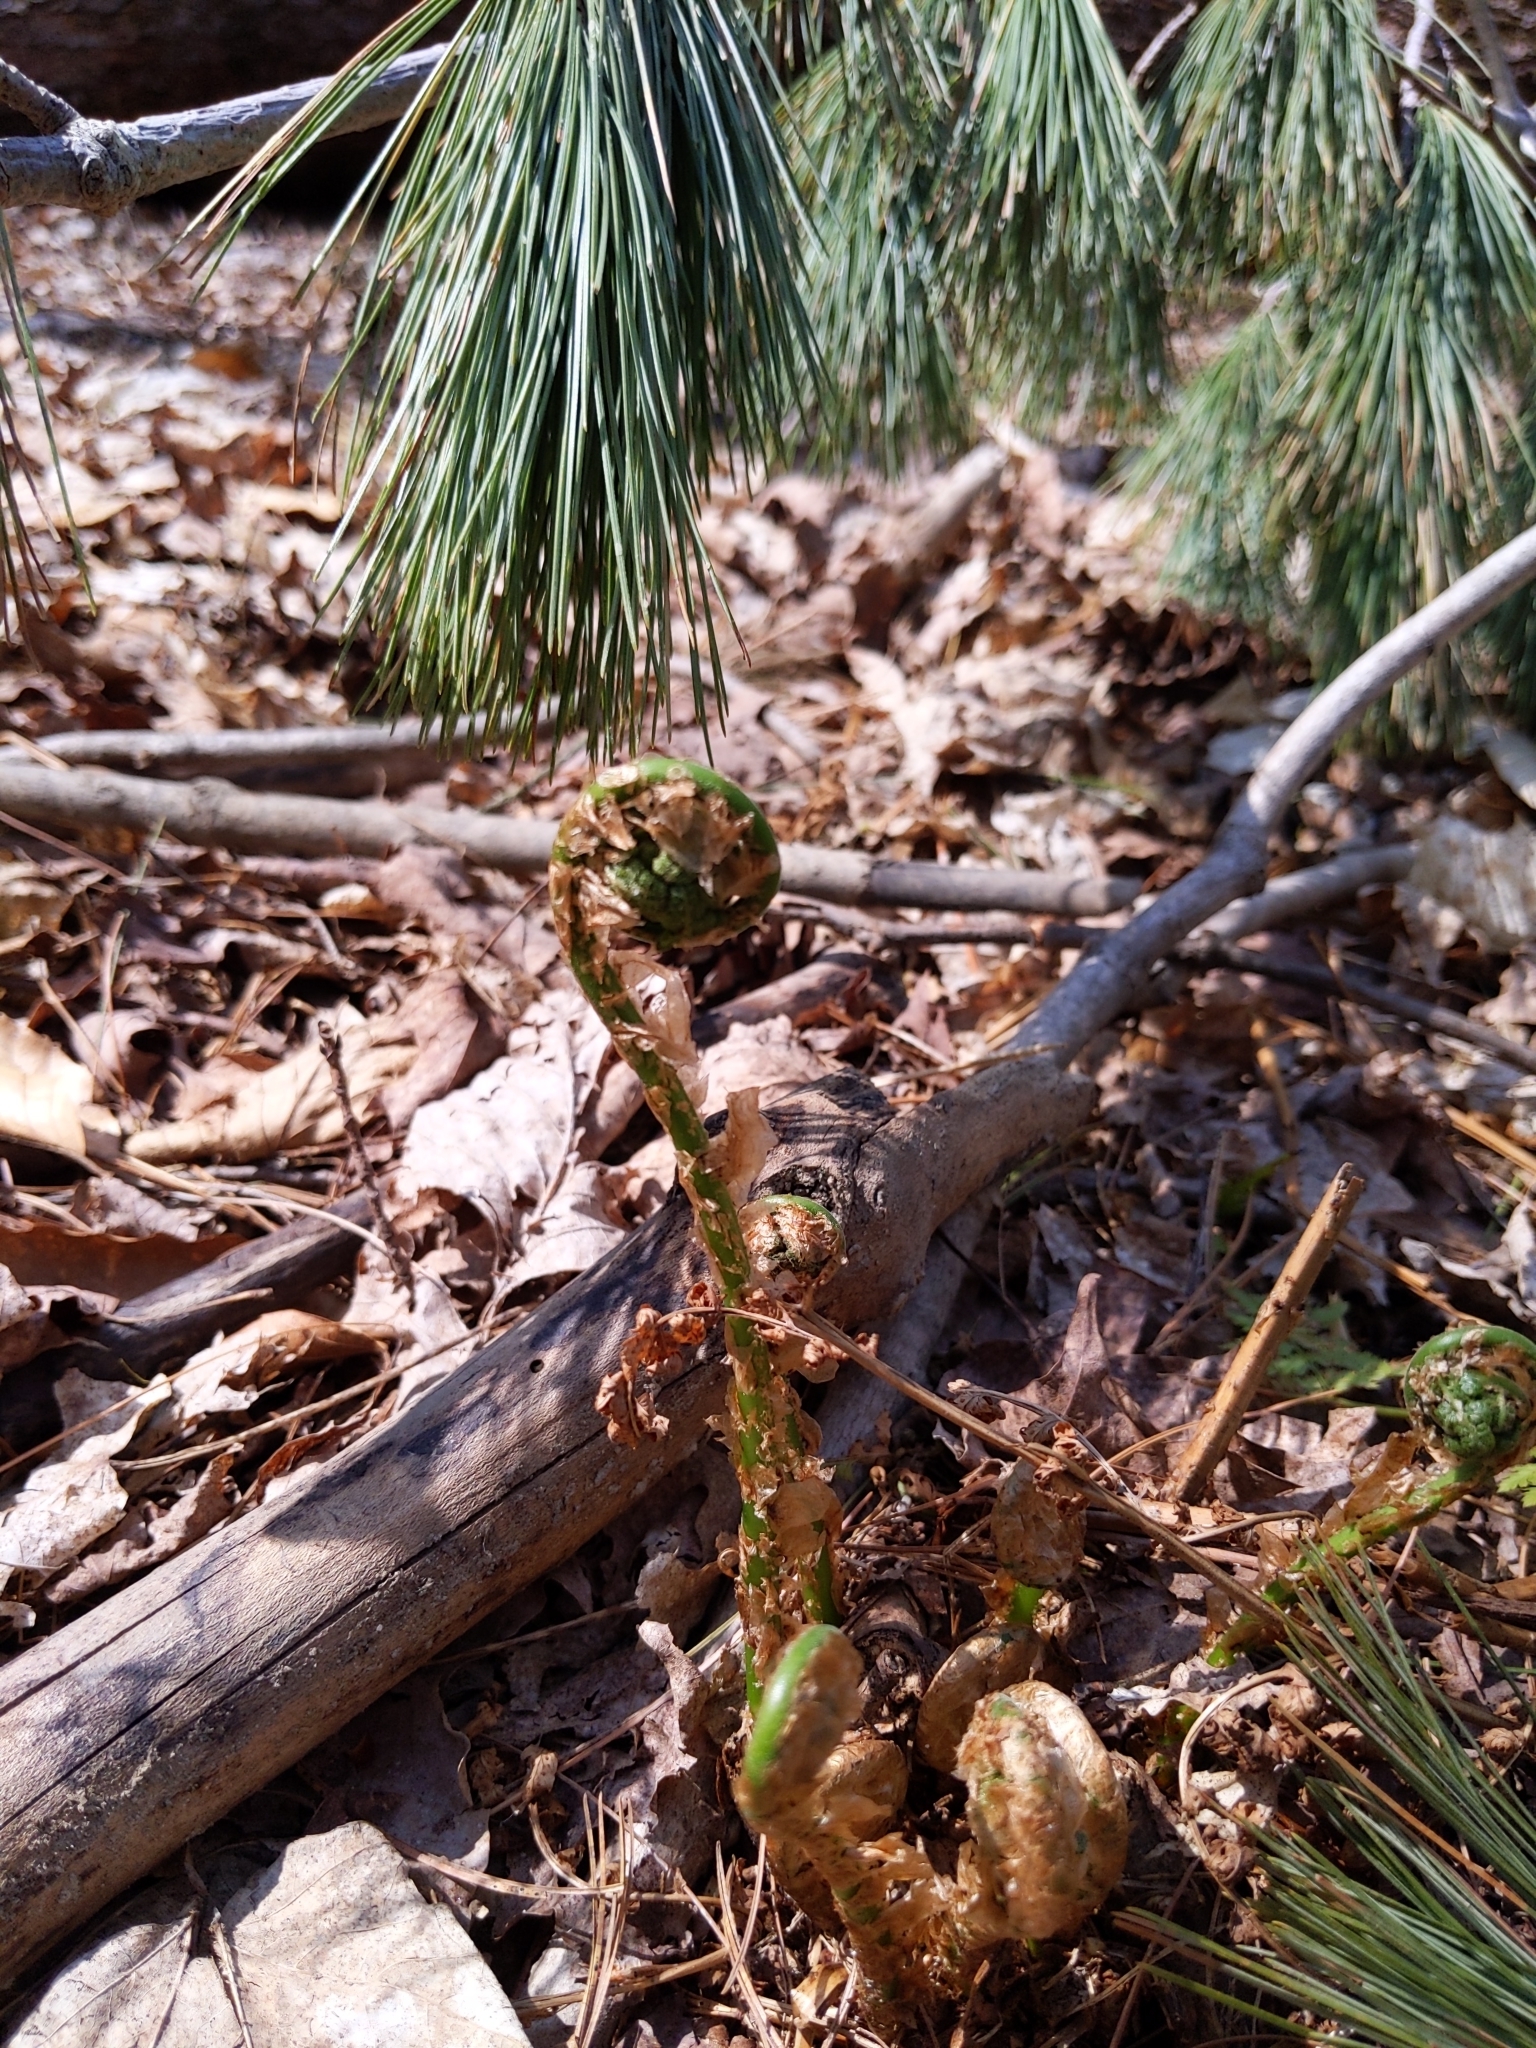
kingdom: Plantae
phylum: Tracheophyta
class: Polypodiopsida
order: Polypodiales
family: Dryopteridaceae
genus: Dryopteris
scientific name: Dryopteris intermedia
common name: Evergreen wood fern
